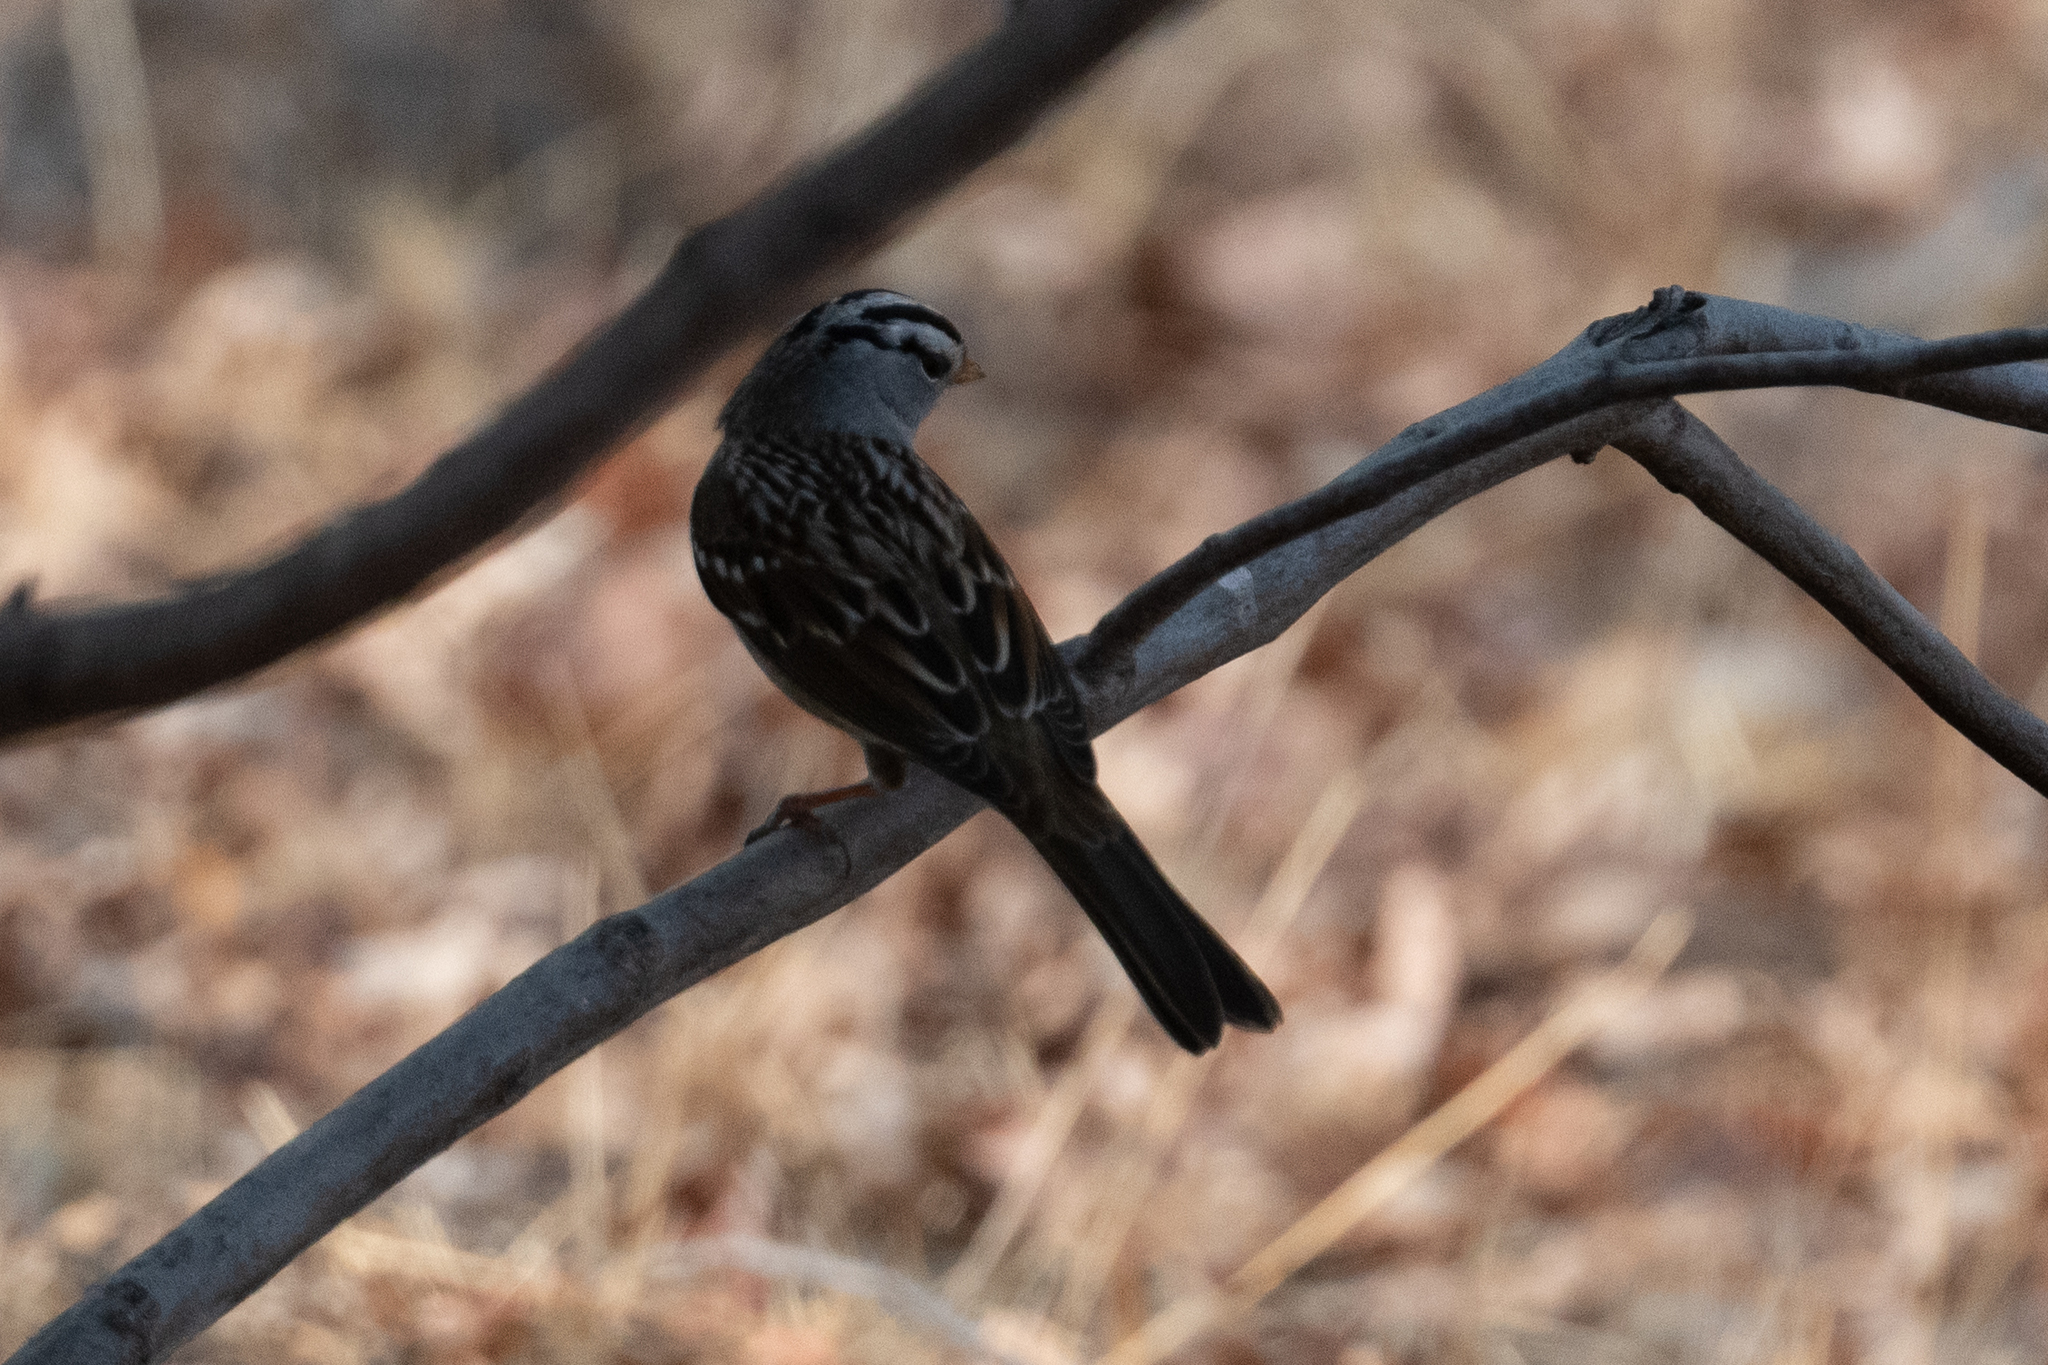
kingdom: Animalia
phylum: Chordata
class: Aves
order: Passeriformes
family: Passerellidae
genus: Zonotrichia
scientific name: Zonotrichia leucophrys
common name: White-crowned sparrow
